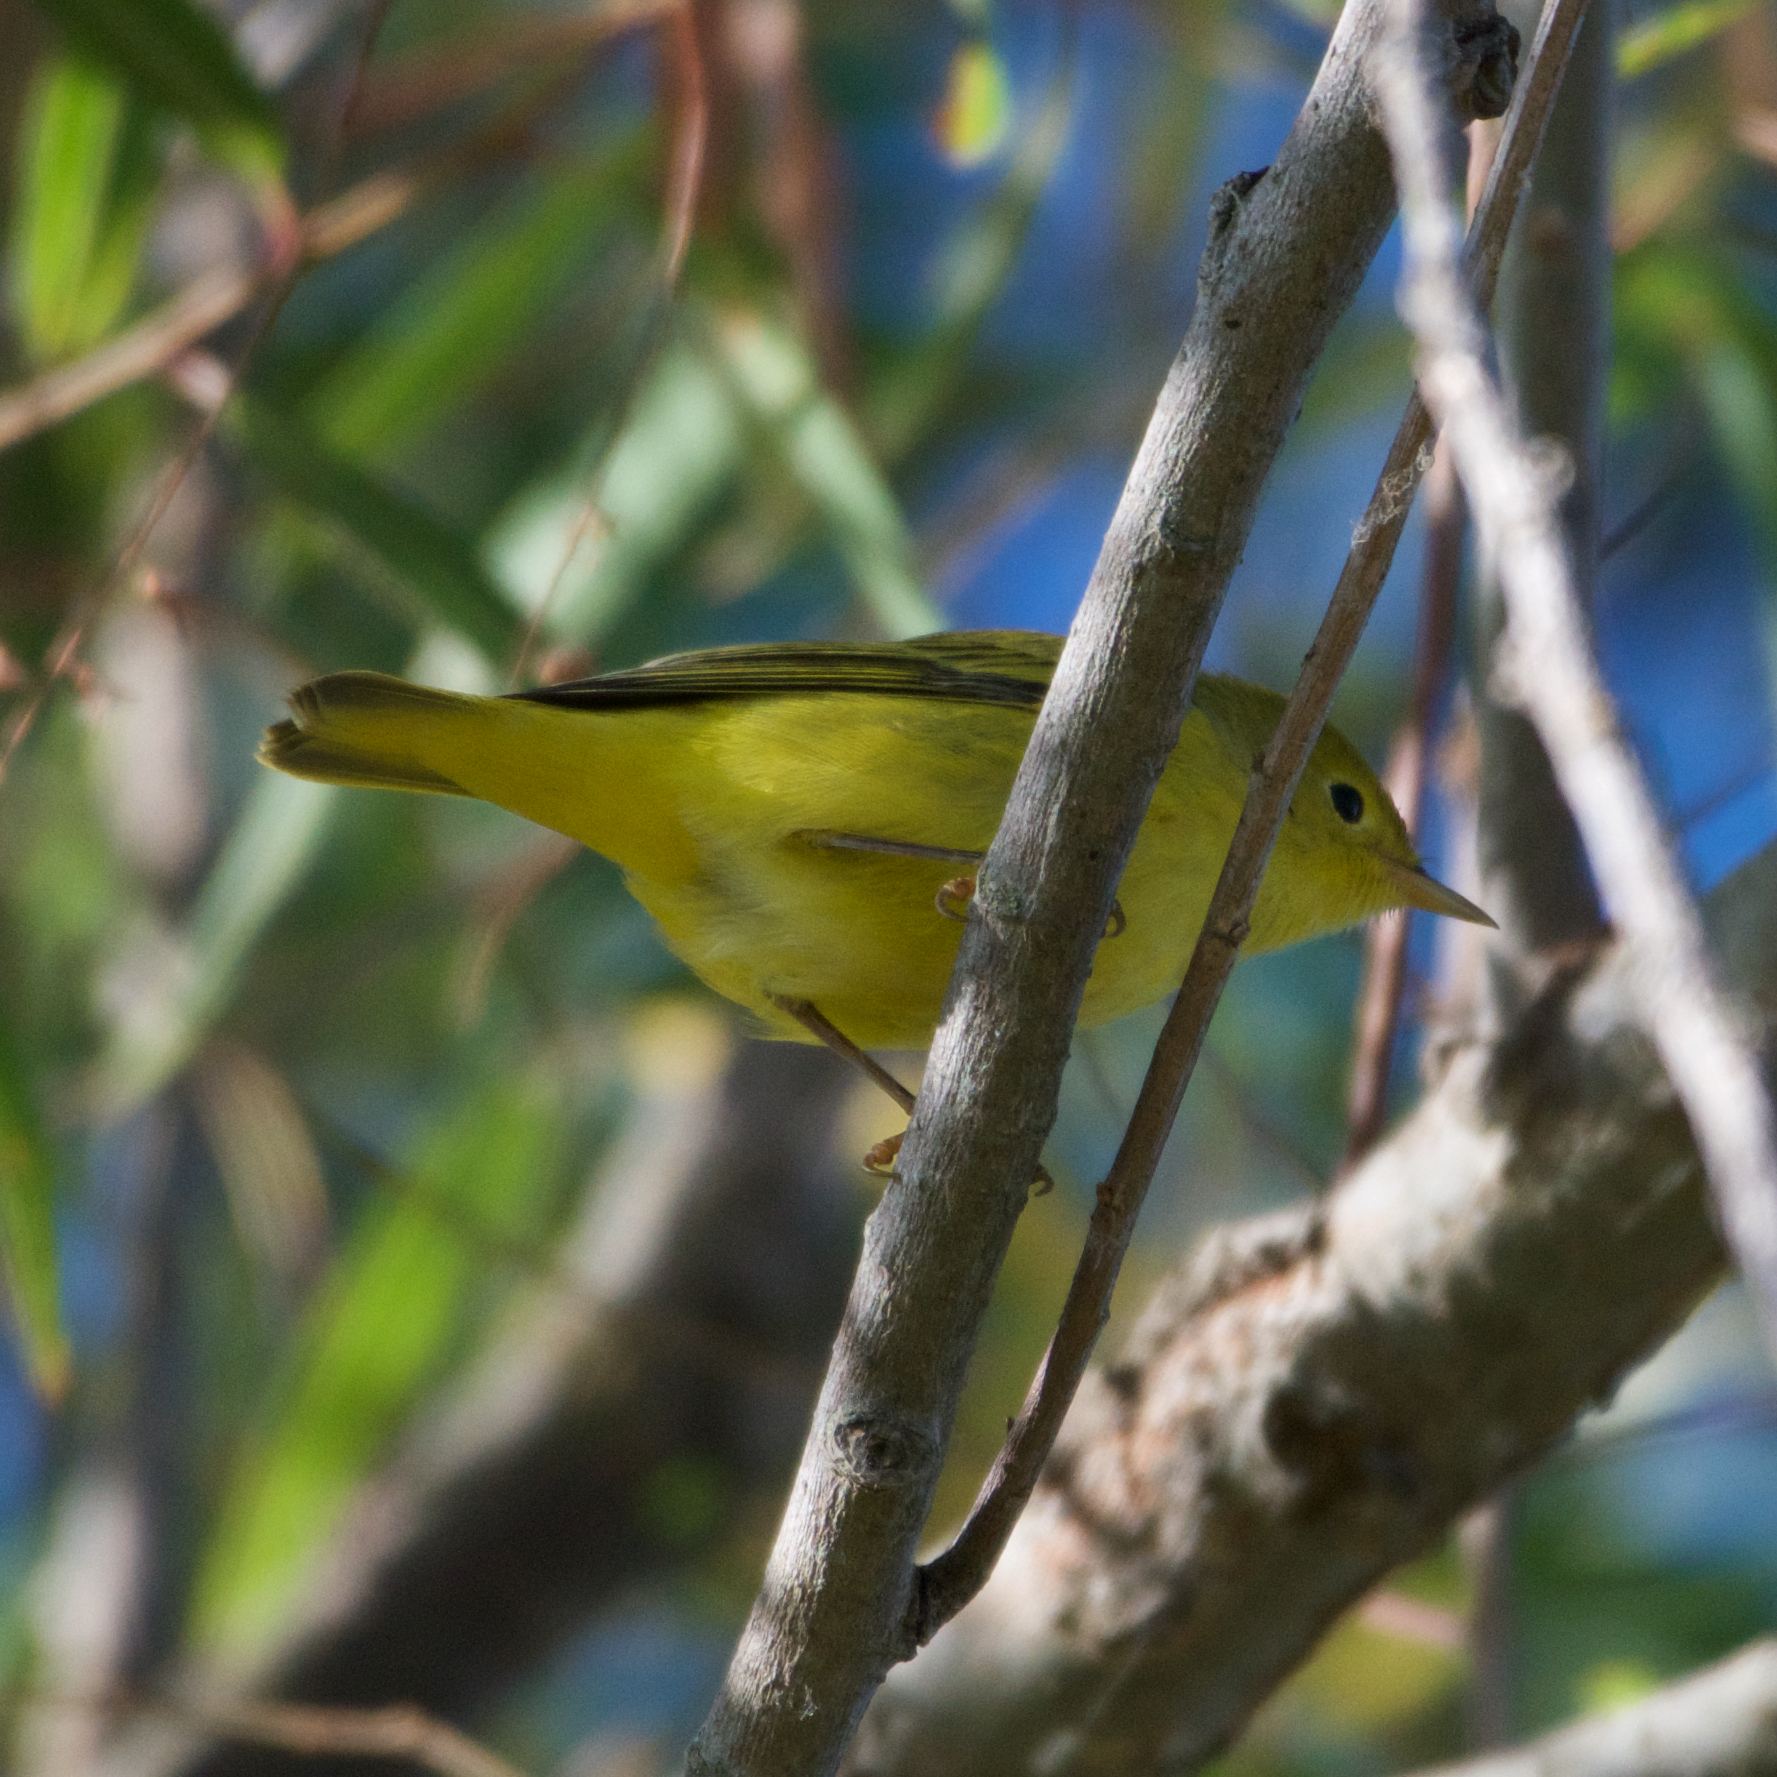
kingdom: Animalia
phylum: Chordata
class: Aves
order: Passeriformes
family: Parulidae
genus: Setophaga
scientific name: Setophaga petechia
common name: Yellow warbler
